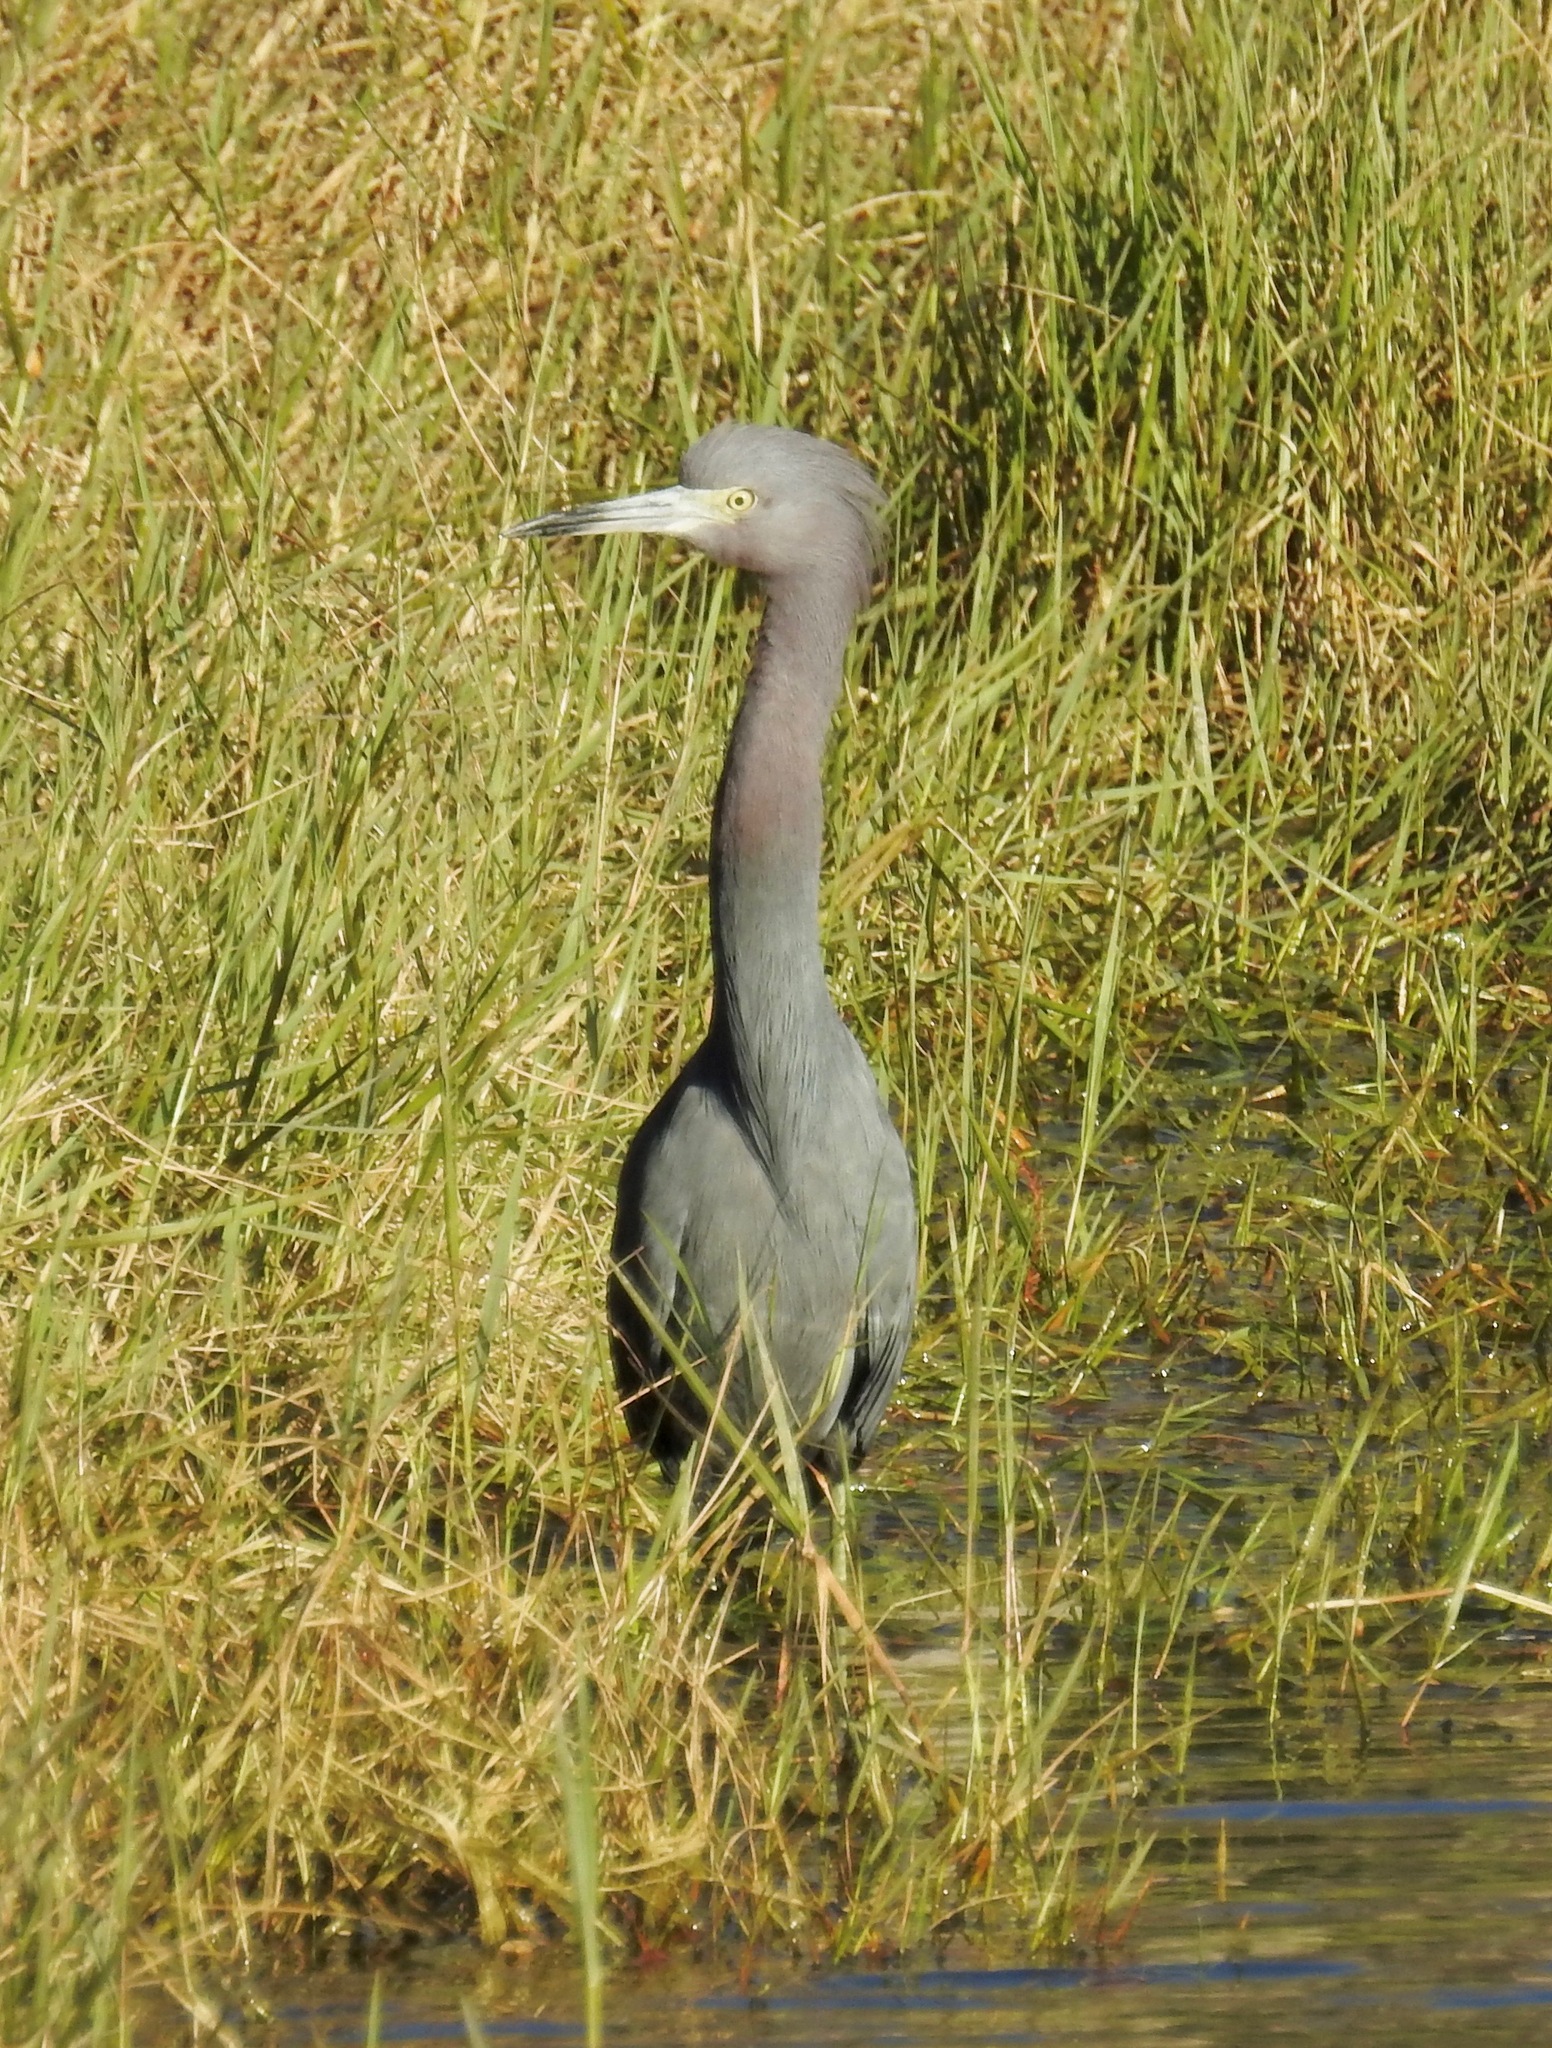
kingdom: Animalia
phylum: Chordata
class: Aves
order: Pelecaniformes
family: Ardeidae
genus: Egretta
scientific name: Egretta caerulea
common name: Little blue heron
